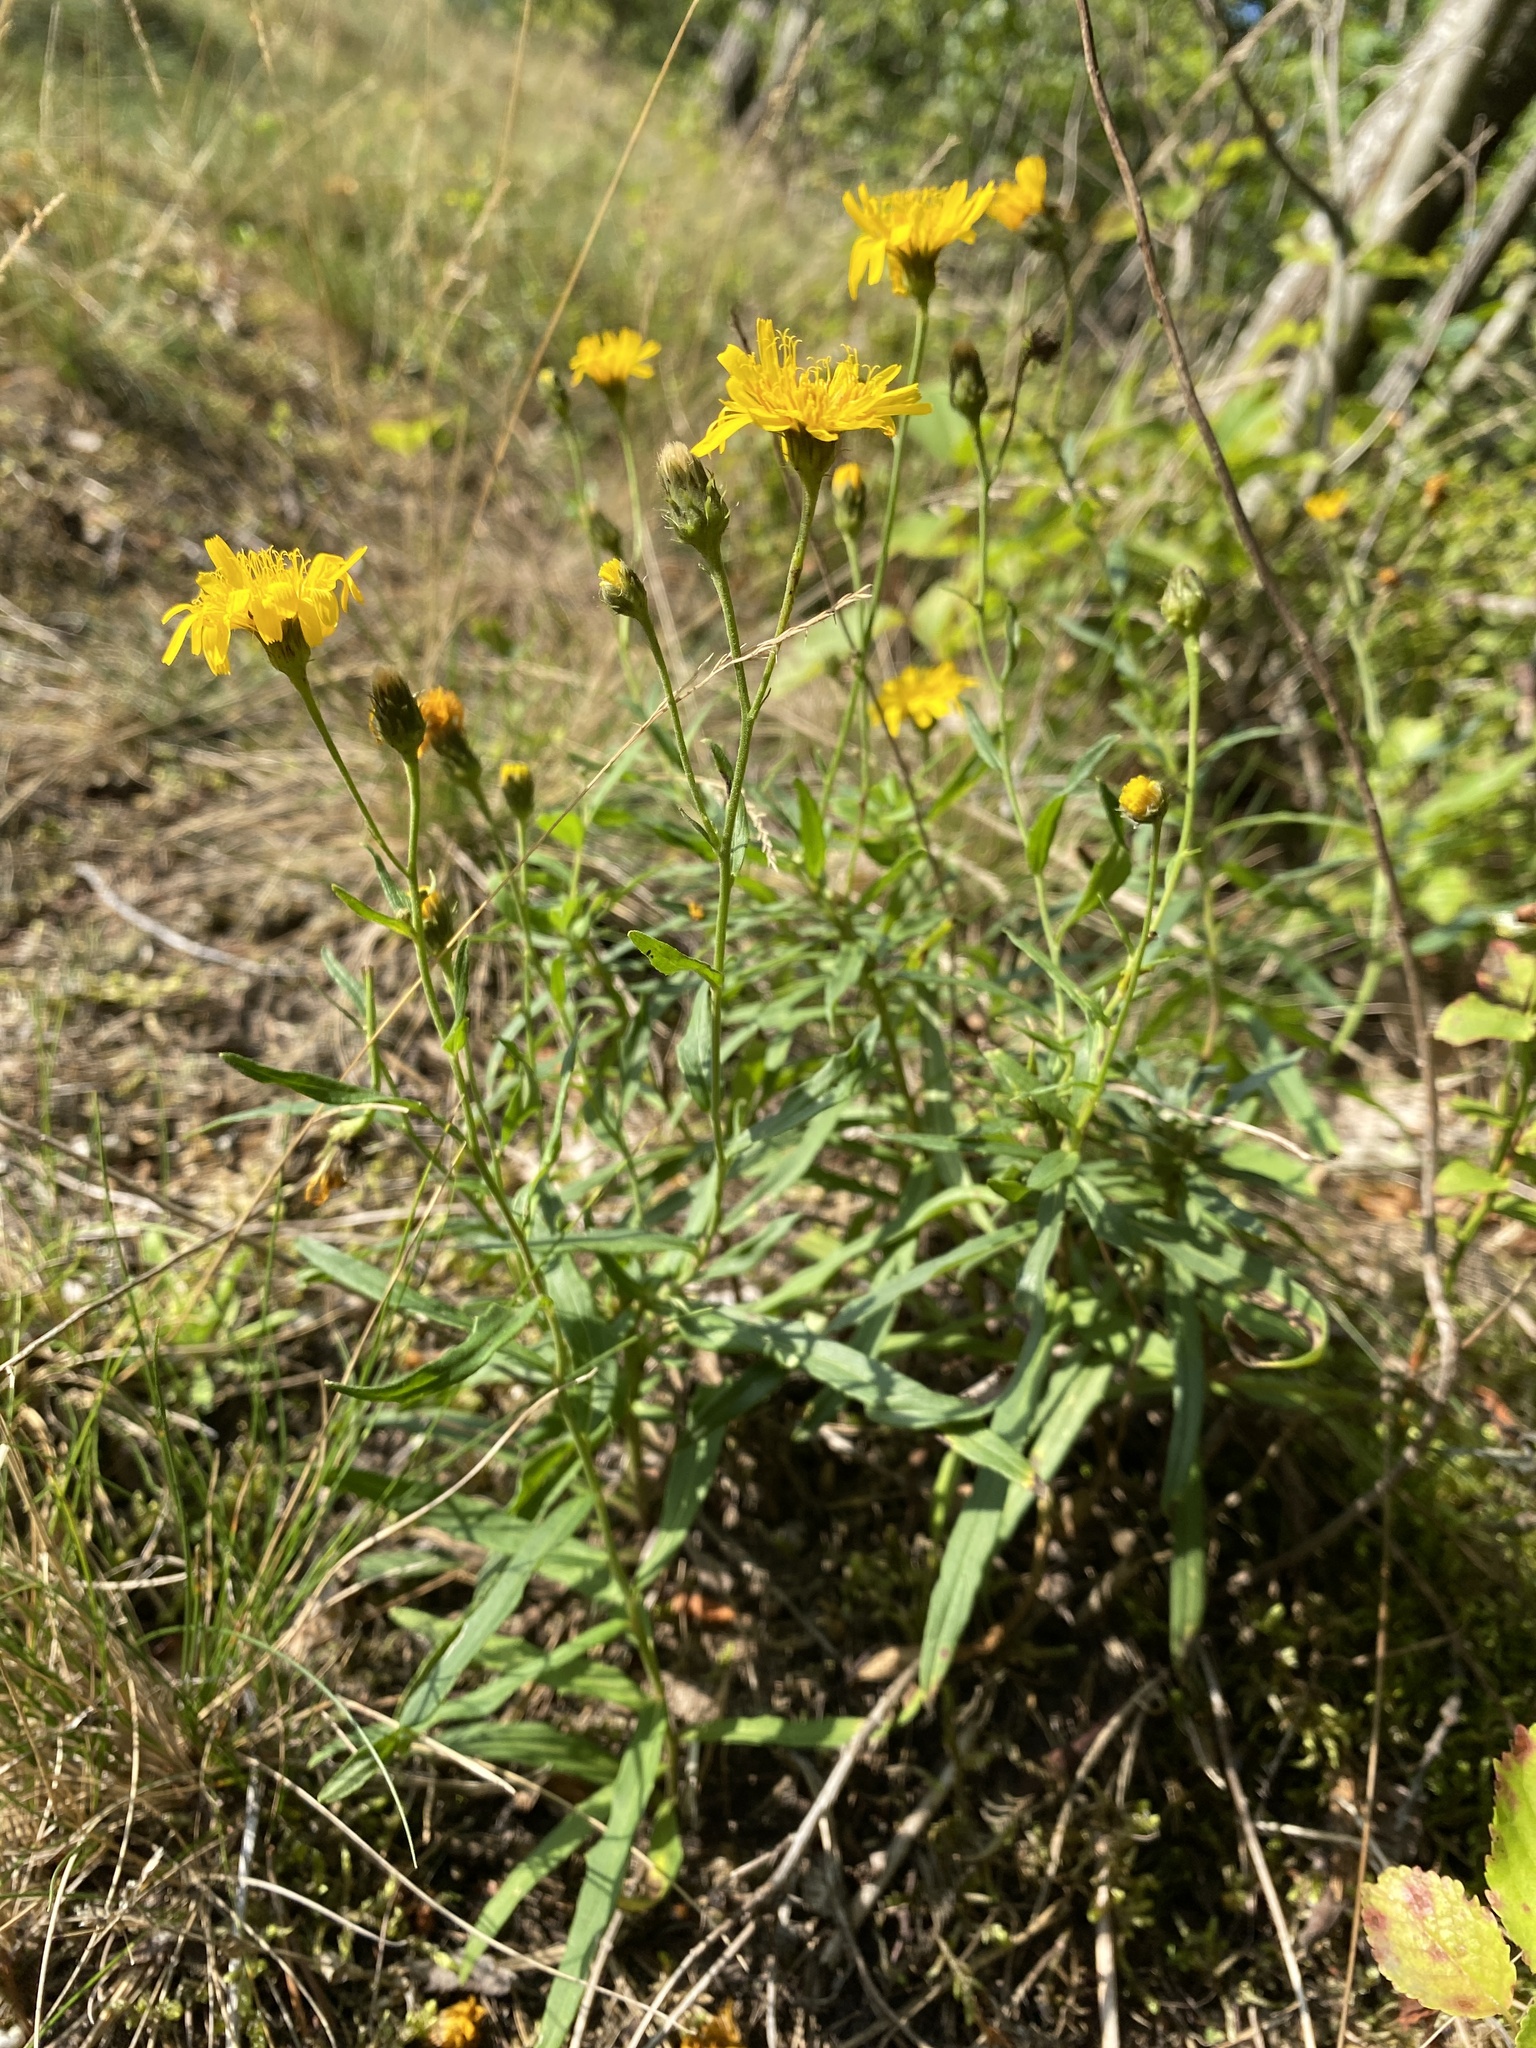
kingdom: Plantae
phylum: Tracheophyta
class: Magnoliopsida
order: Asterales
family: Asteraceae
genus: Hieracium
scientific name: Hieracium umbellatum
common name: Northern hawkweed
